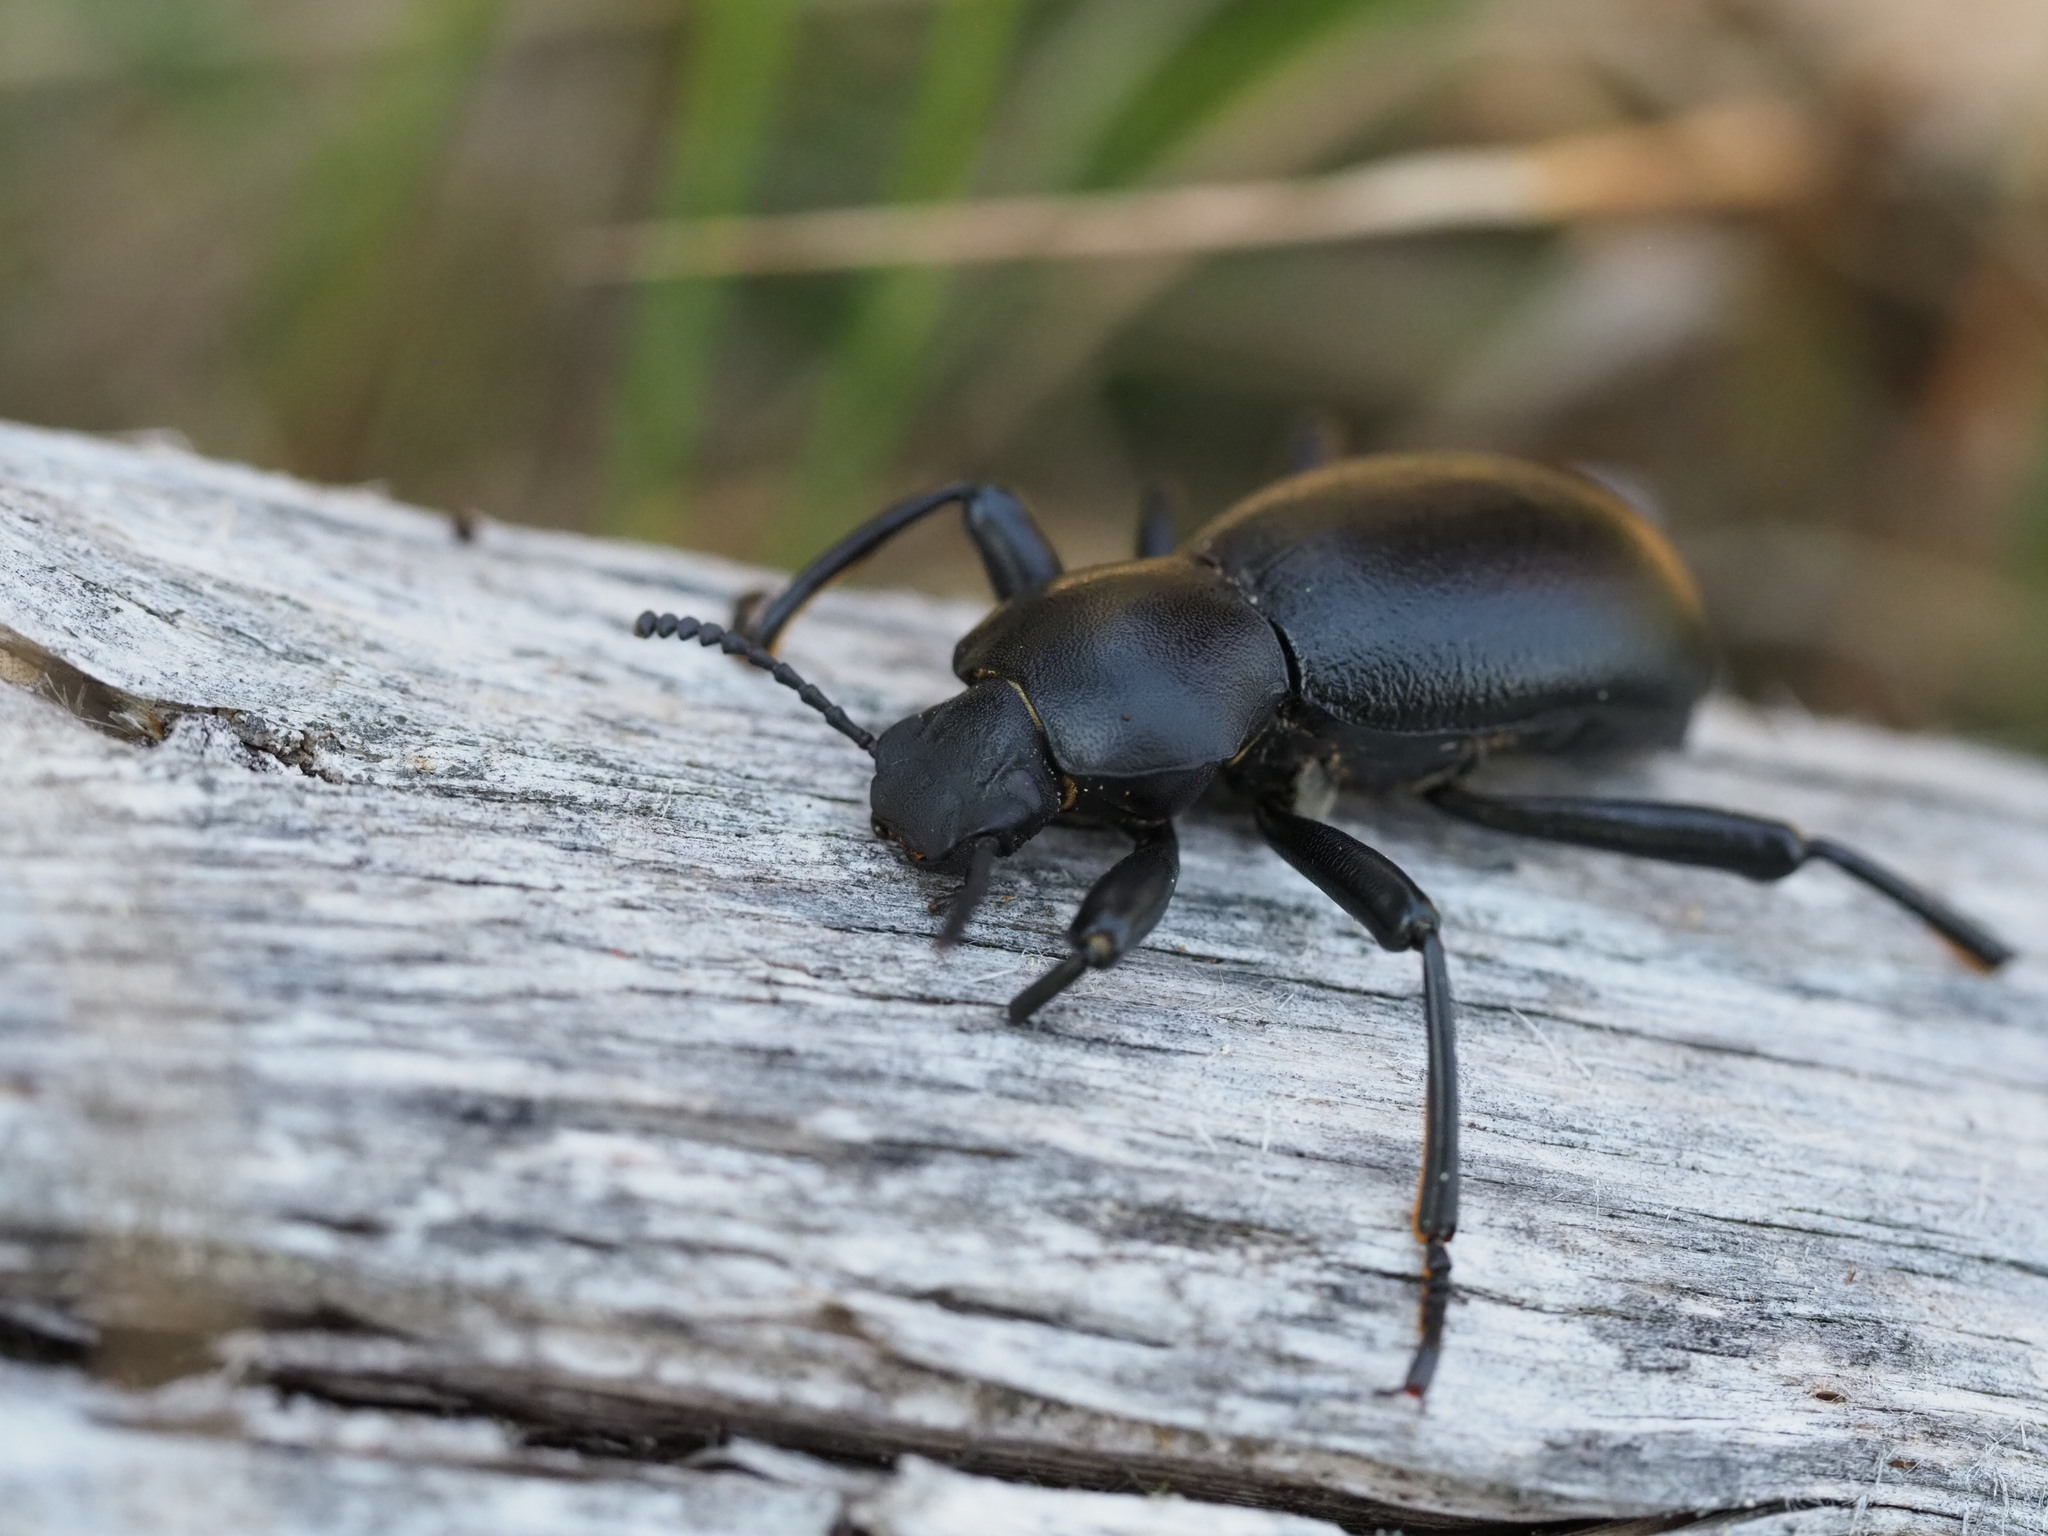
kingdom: Animalia
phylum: Arthropoda
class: Insecta
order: Coleoptera
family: Tenebrionidae
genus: Coelocnemis
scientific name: Coelocnemis dilaticollis
